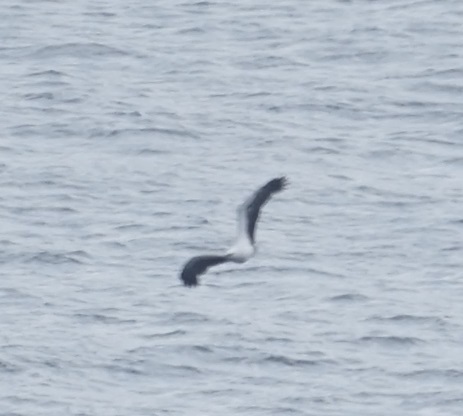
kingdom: Animalia
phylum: Chordata
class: Aves
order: Accipitriformes
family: Accipitridae
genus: Haliaeetus
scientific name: Haliaeetus leucogaster
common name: White-bellied sea eagle
